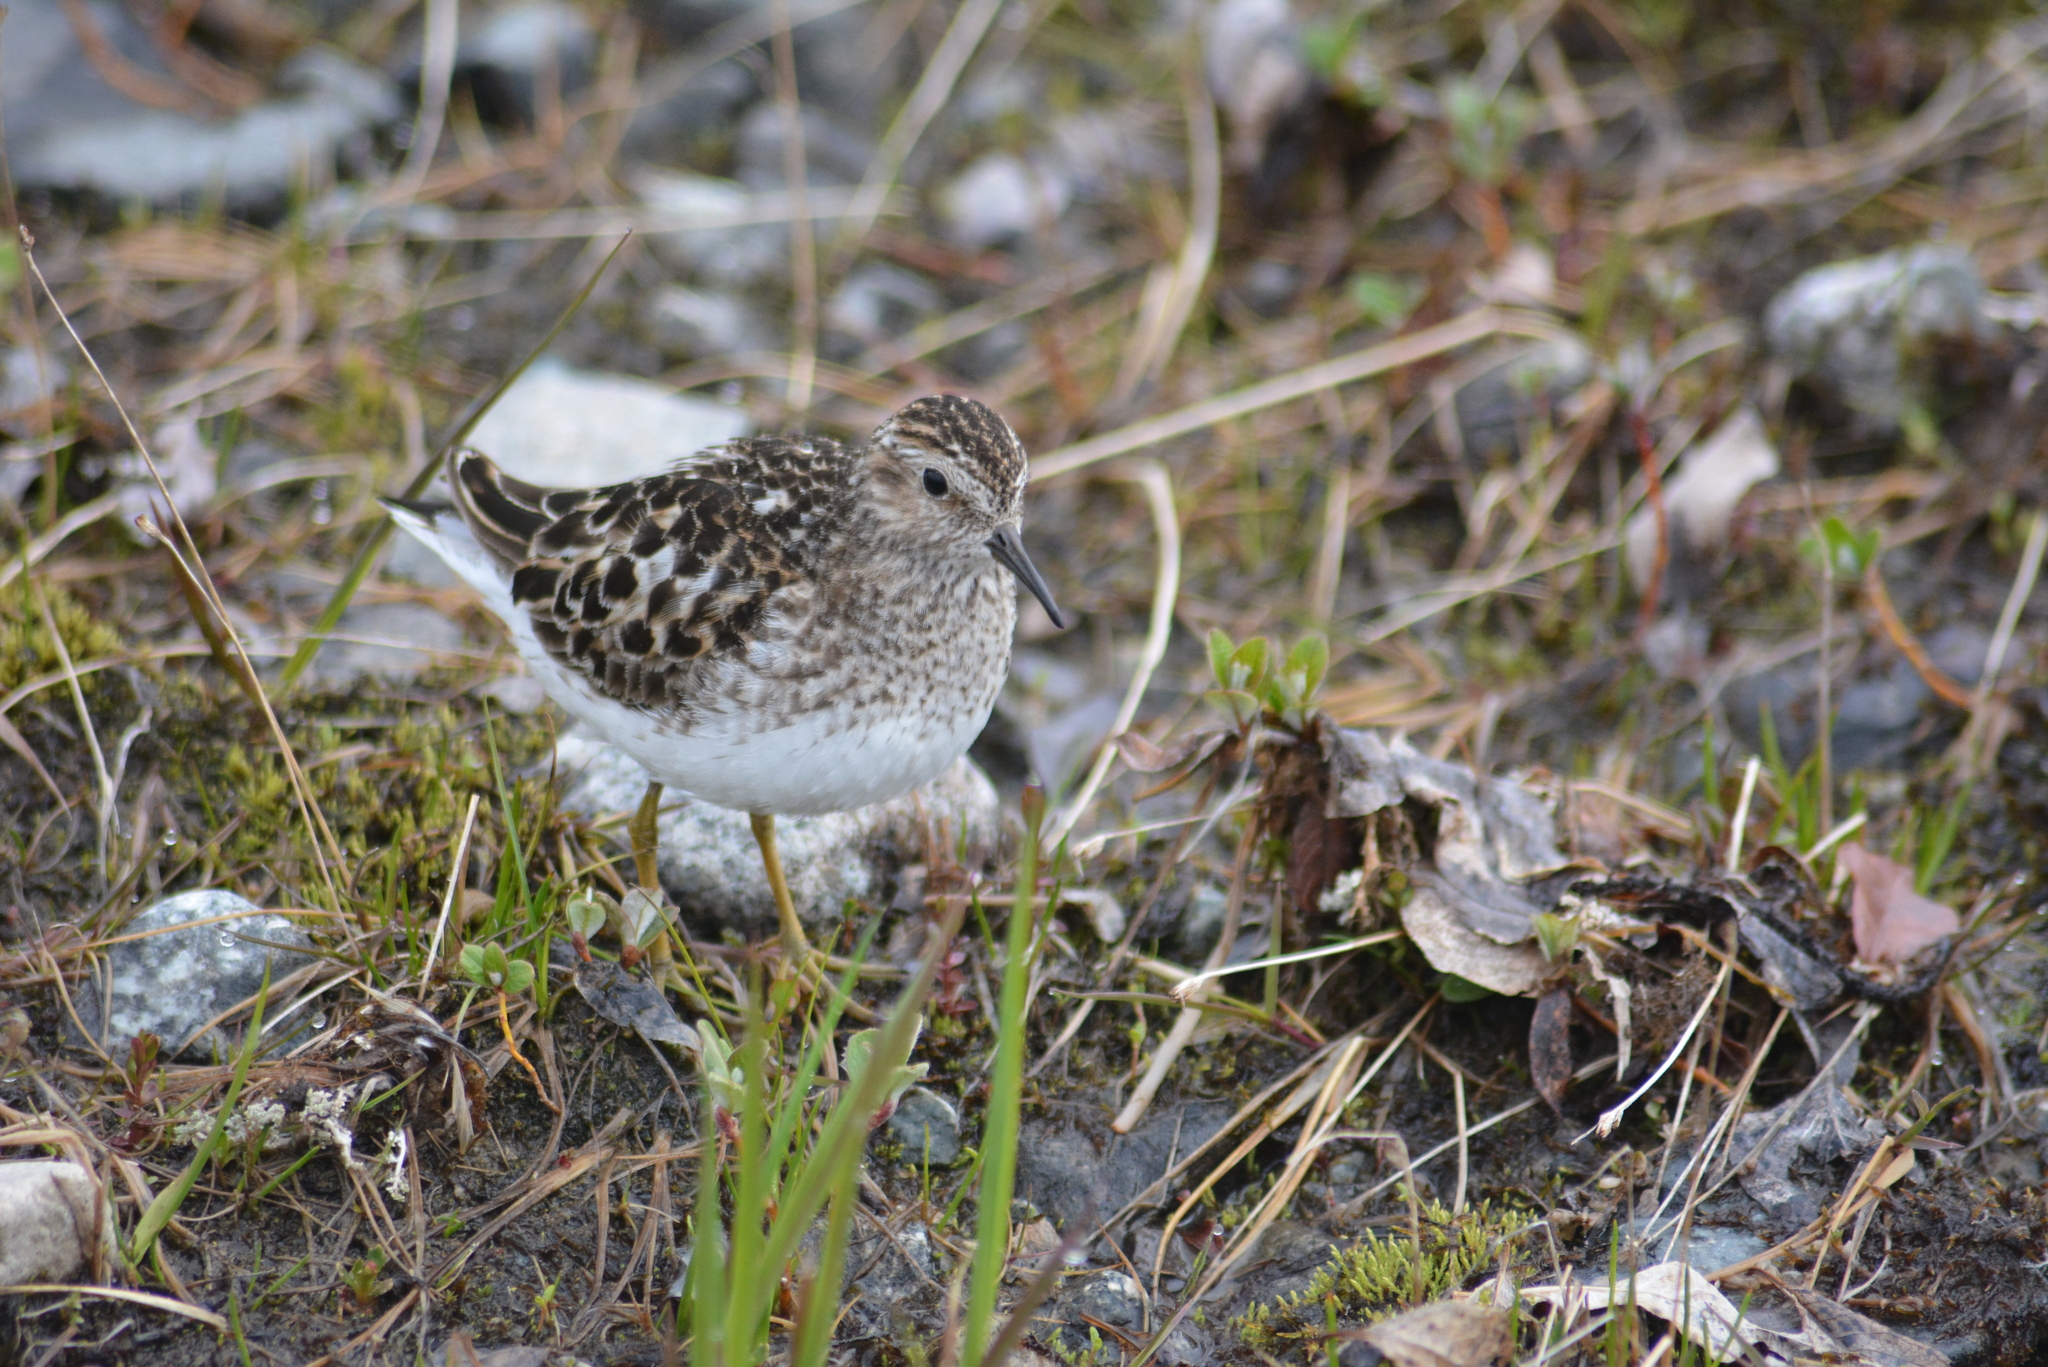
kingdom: Animalia
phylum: Chordata
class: Aves
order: Charadriiformes
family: Scolopacidae
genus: Calidris
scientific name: Calidris minutilla
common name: Least sandpiper
